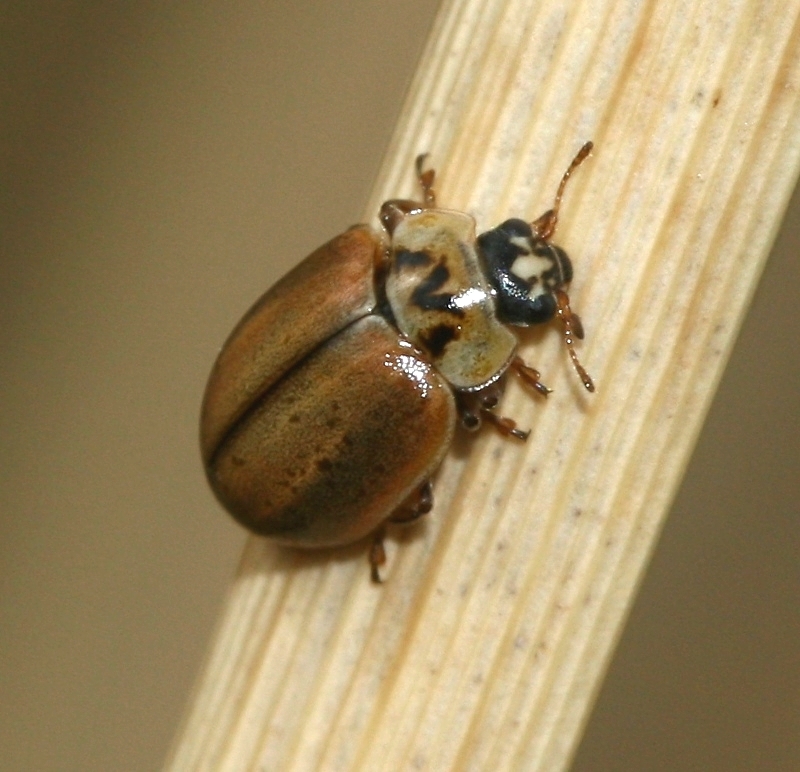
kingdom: Animalia
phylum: Arthropoda
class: Insecta
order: Coleoptera
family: Coccinellidae
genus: Aphidecta
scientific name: Aphidecta obliterata
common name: Larch ladybird
